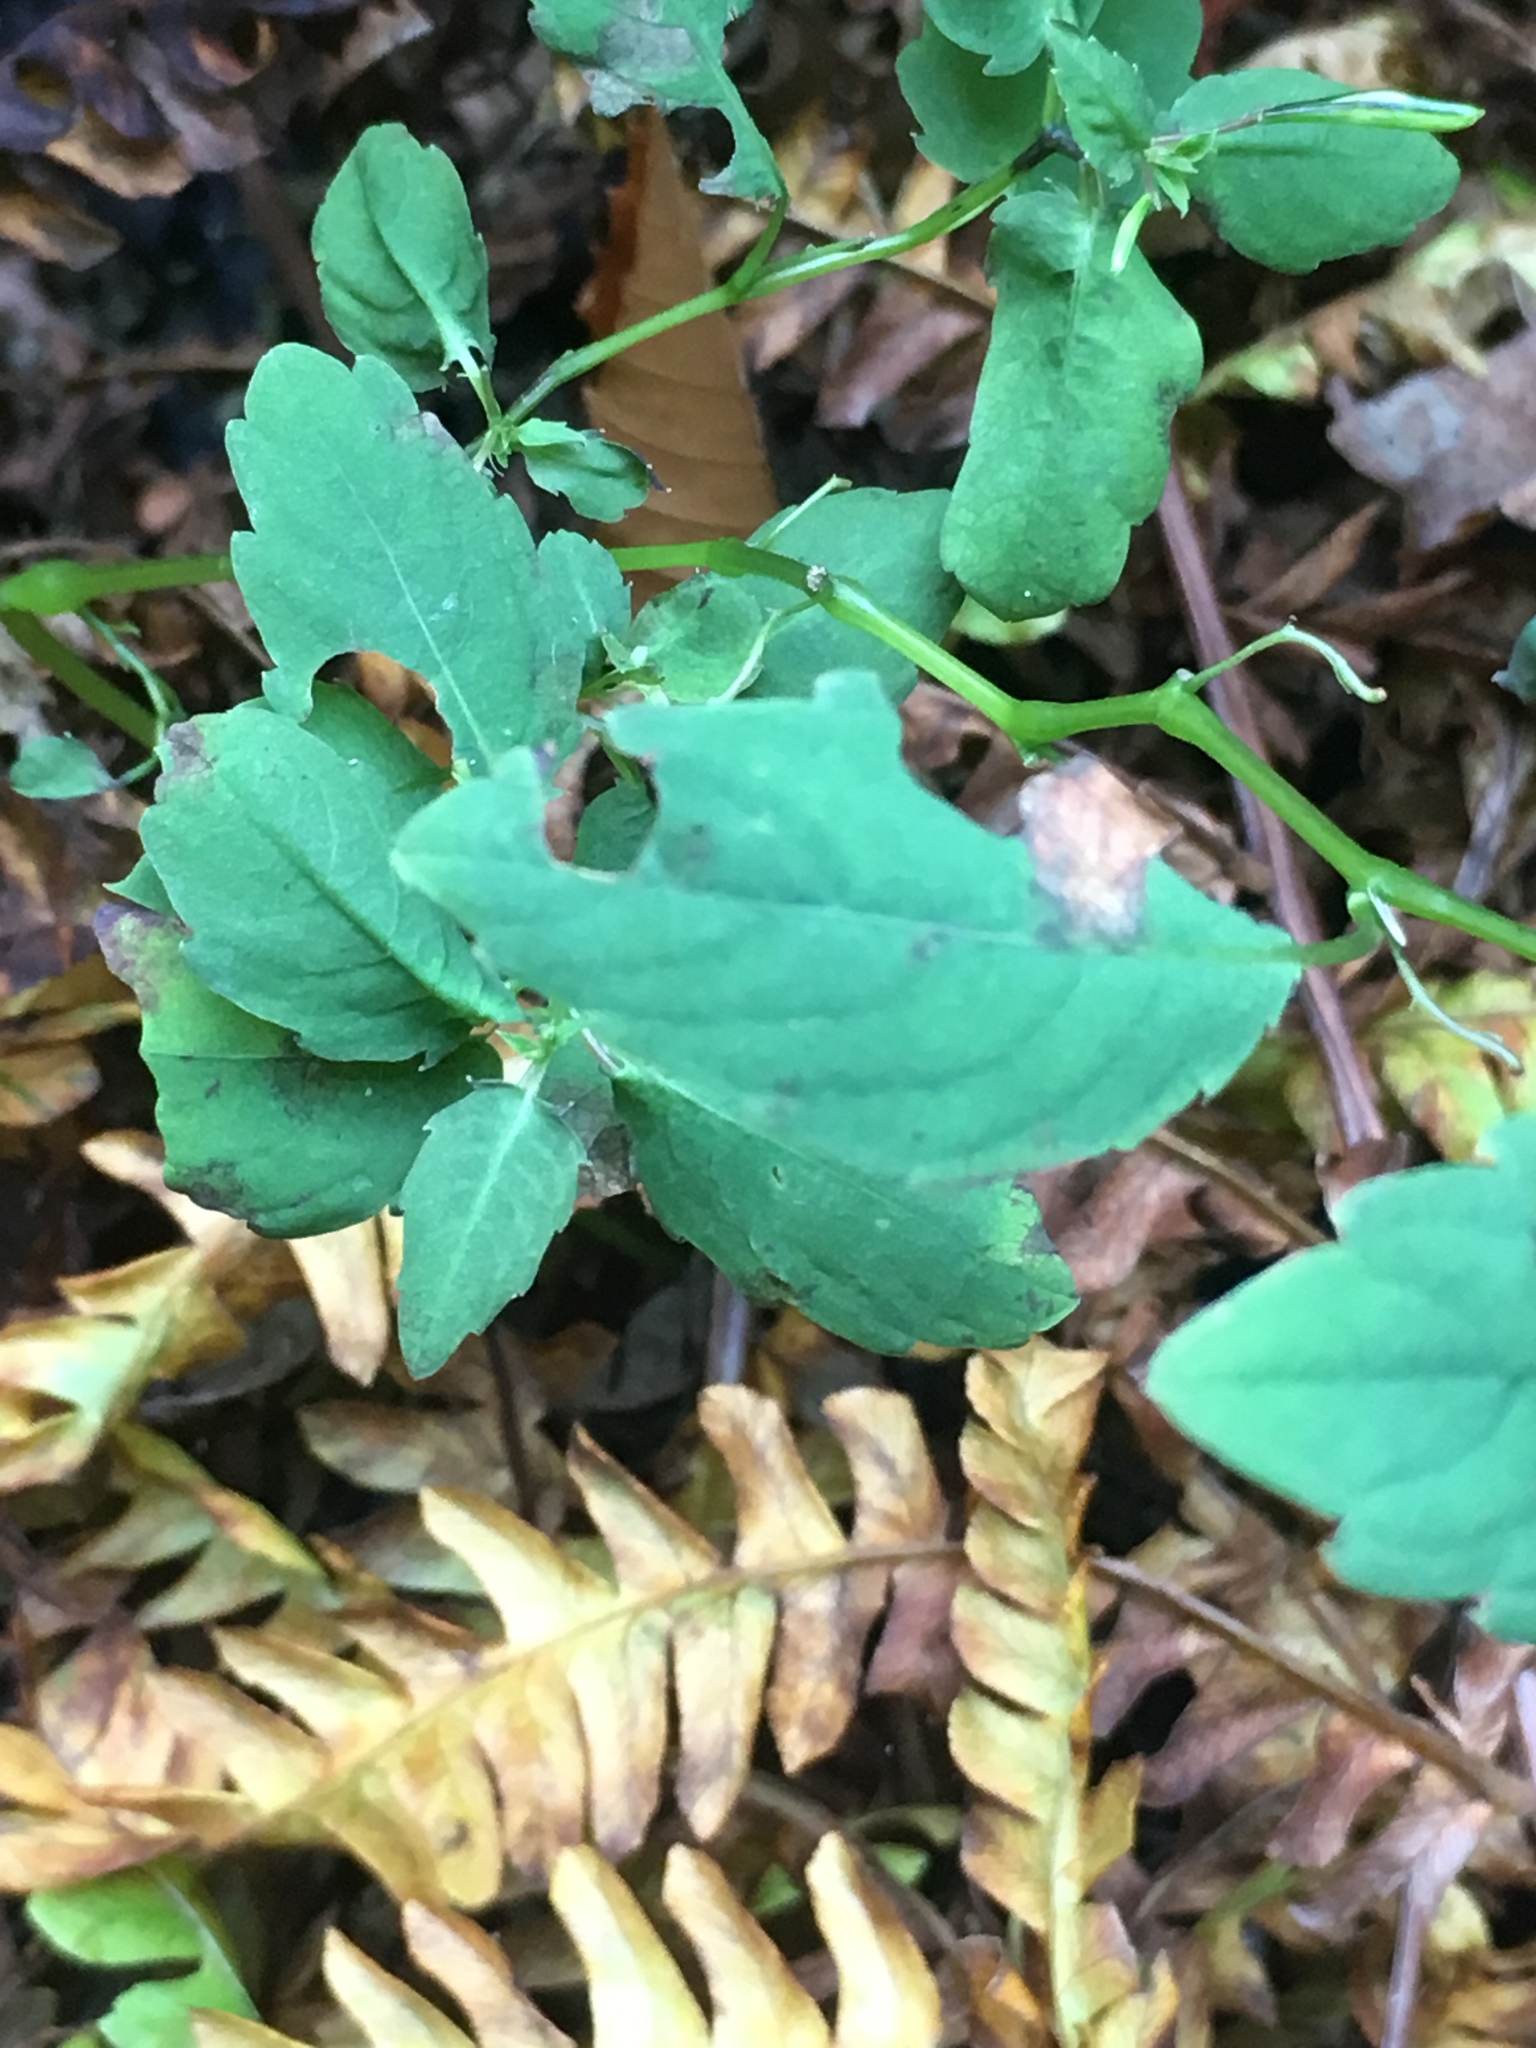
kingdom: Plantae
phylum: Tracheophyta
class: Magnoliopsida
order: Ericales
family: Balsaminaceae
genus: Impatiens
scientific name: Impatiens capensis
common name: Orange balsam
